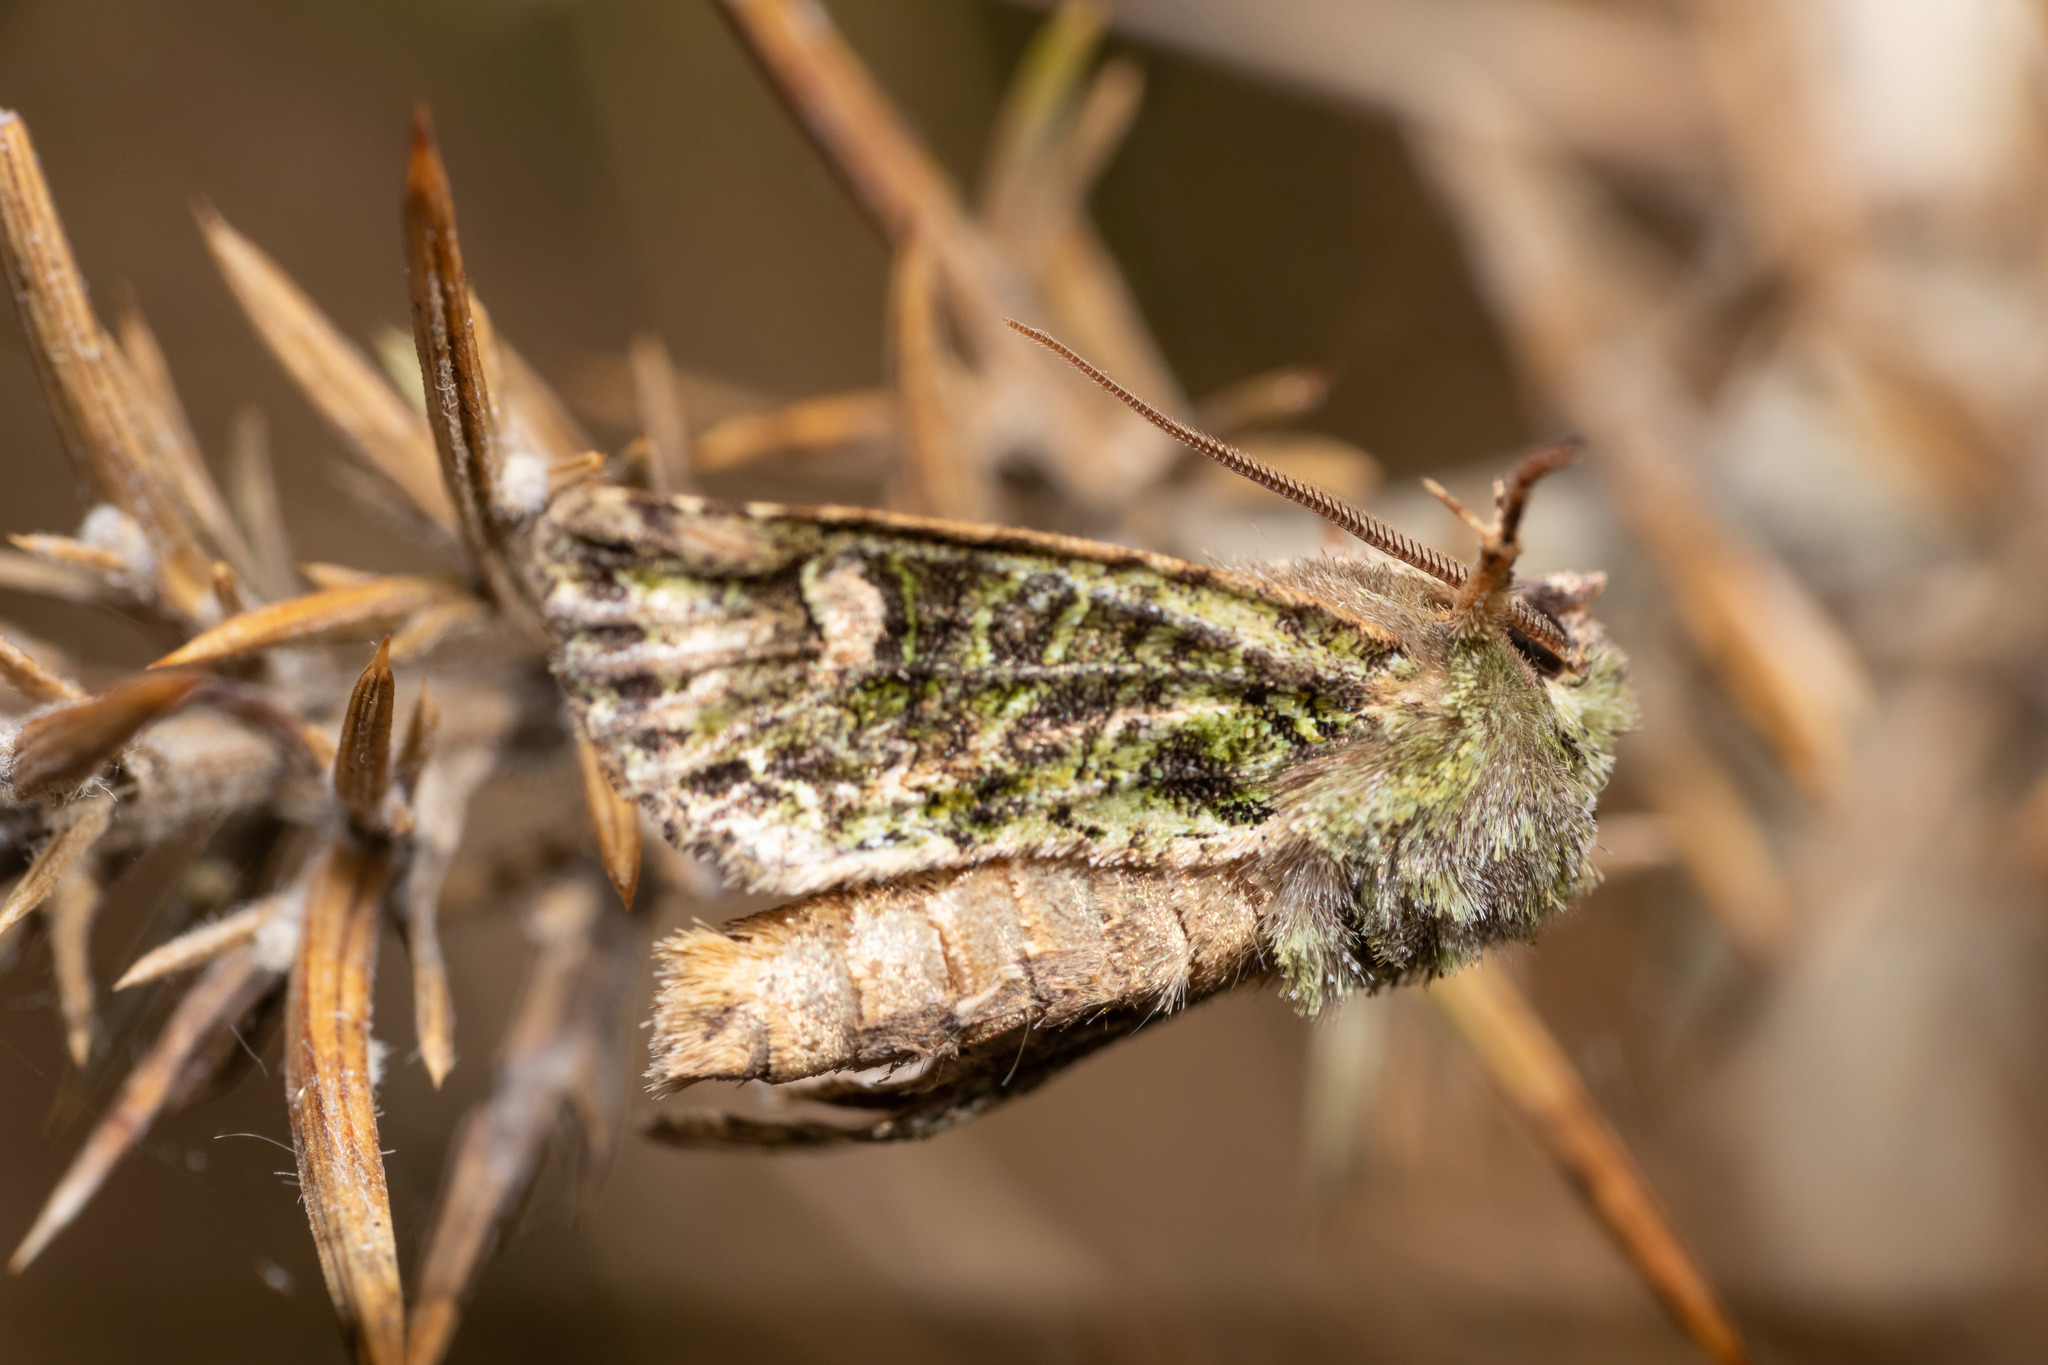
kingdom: Animalia
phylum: Arthropoda
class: Insecta
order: Lepidoptera
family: Noctuidae
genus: Ichneutica
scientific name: Ichneutica
